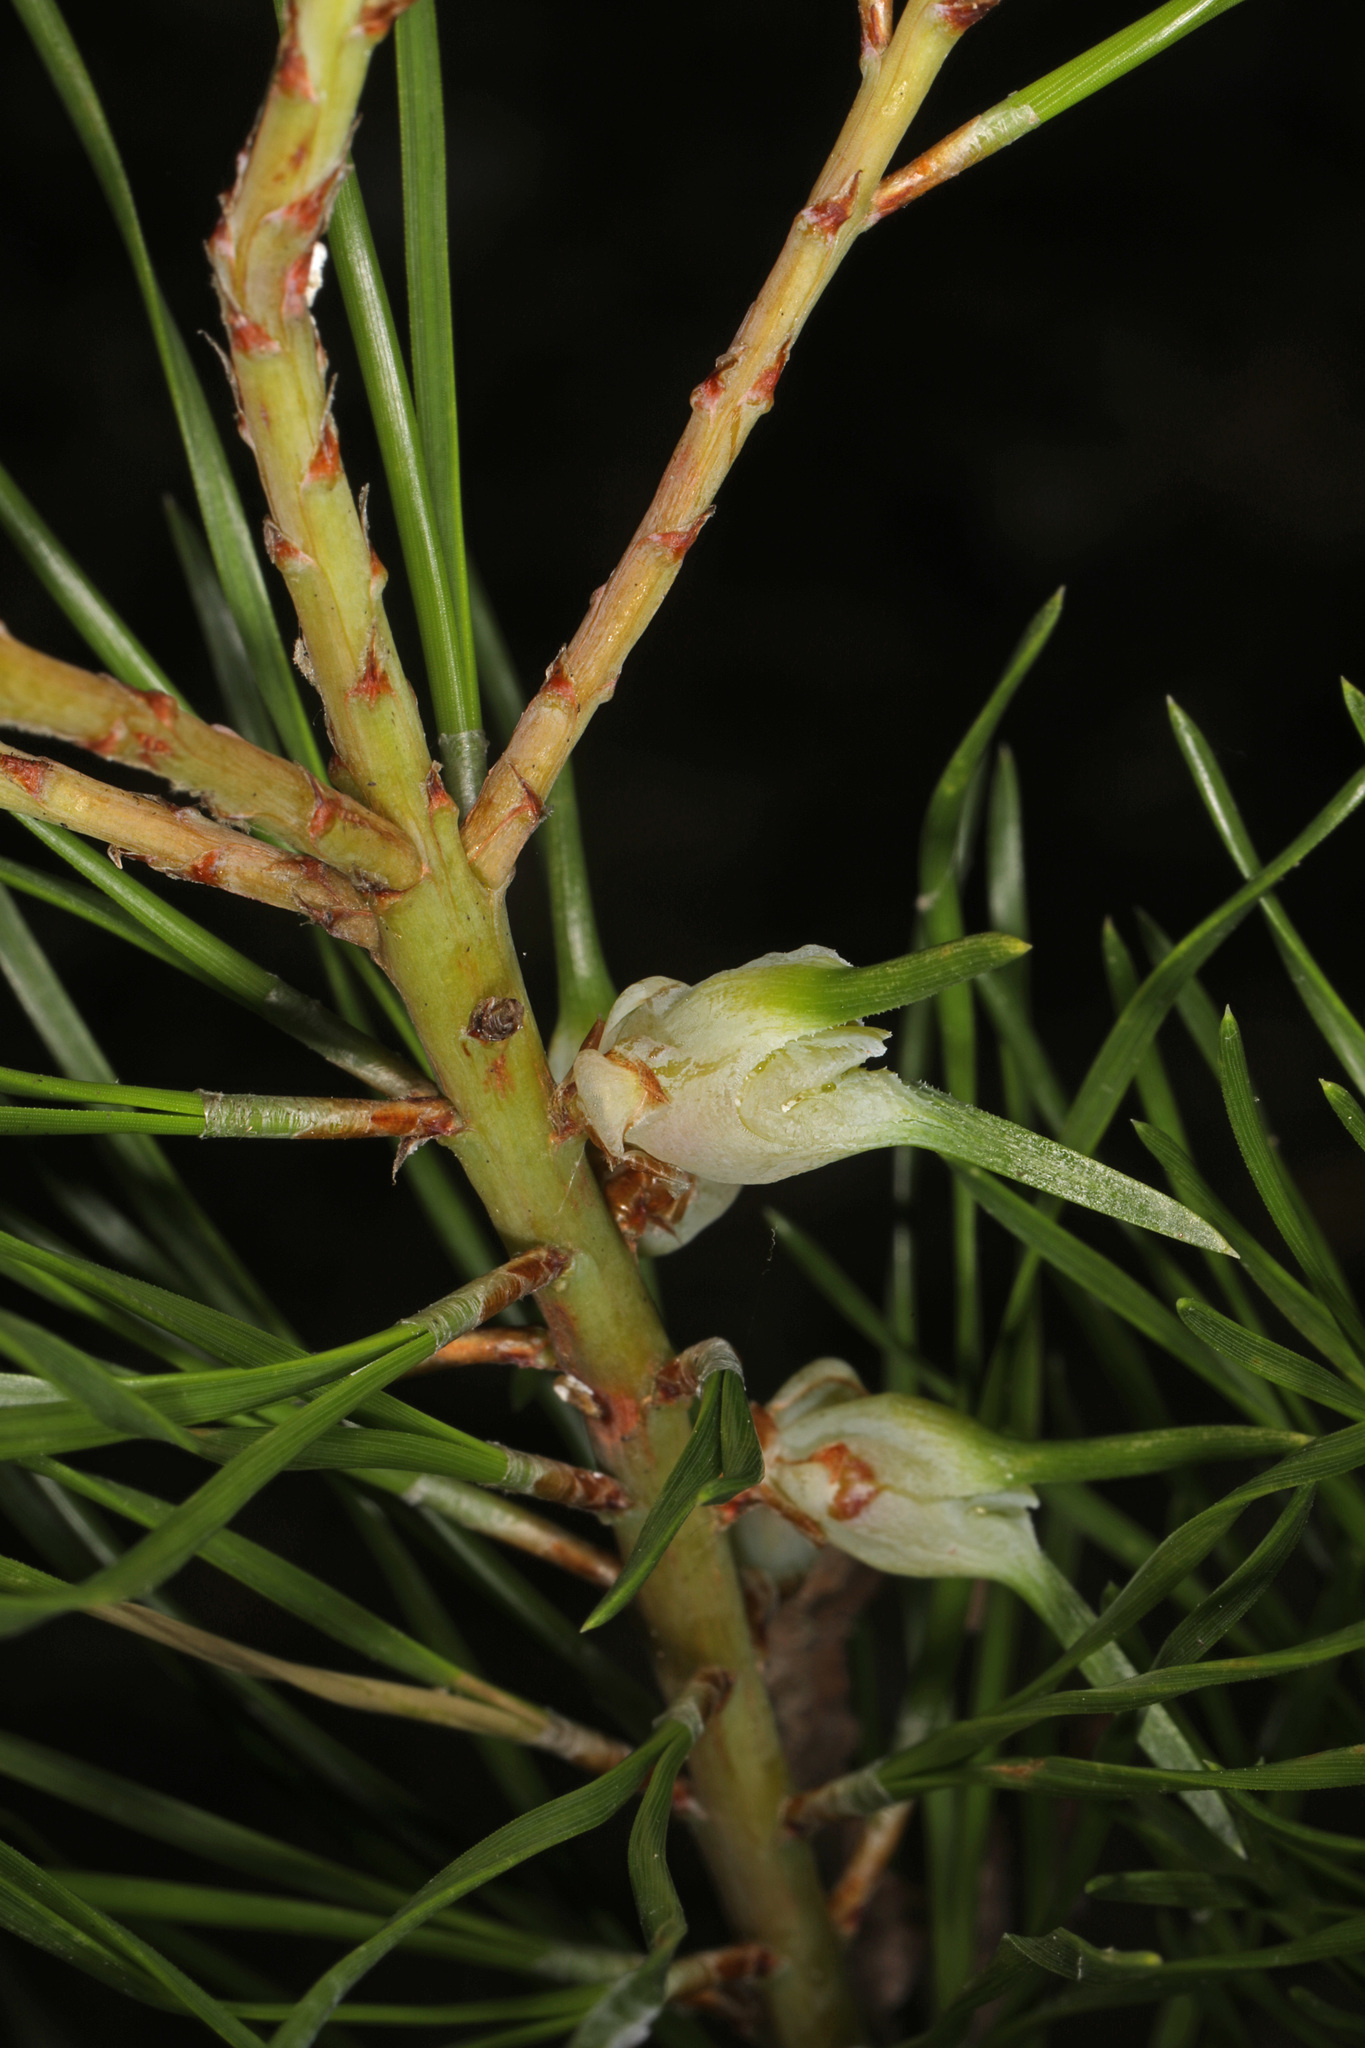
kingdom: Animalia
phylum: Arthropoda
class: Insecta
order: Diptera
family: Cecidomyiidae
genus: Thecodiplosis
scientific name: Thecodiplosis brachynteroides
